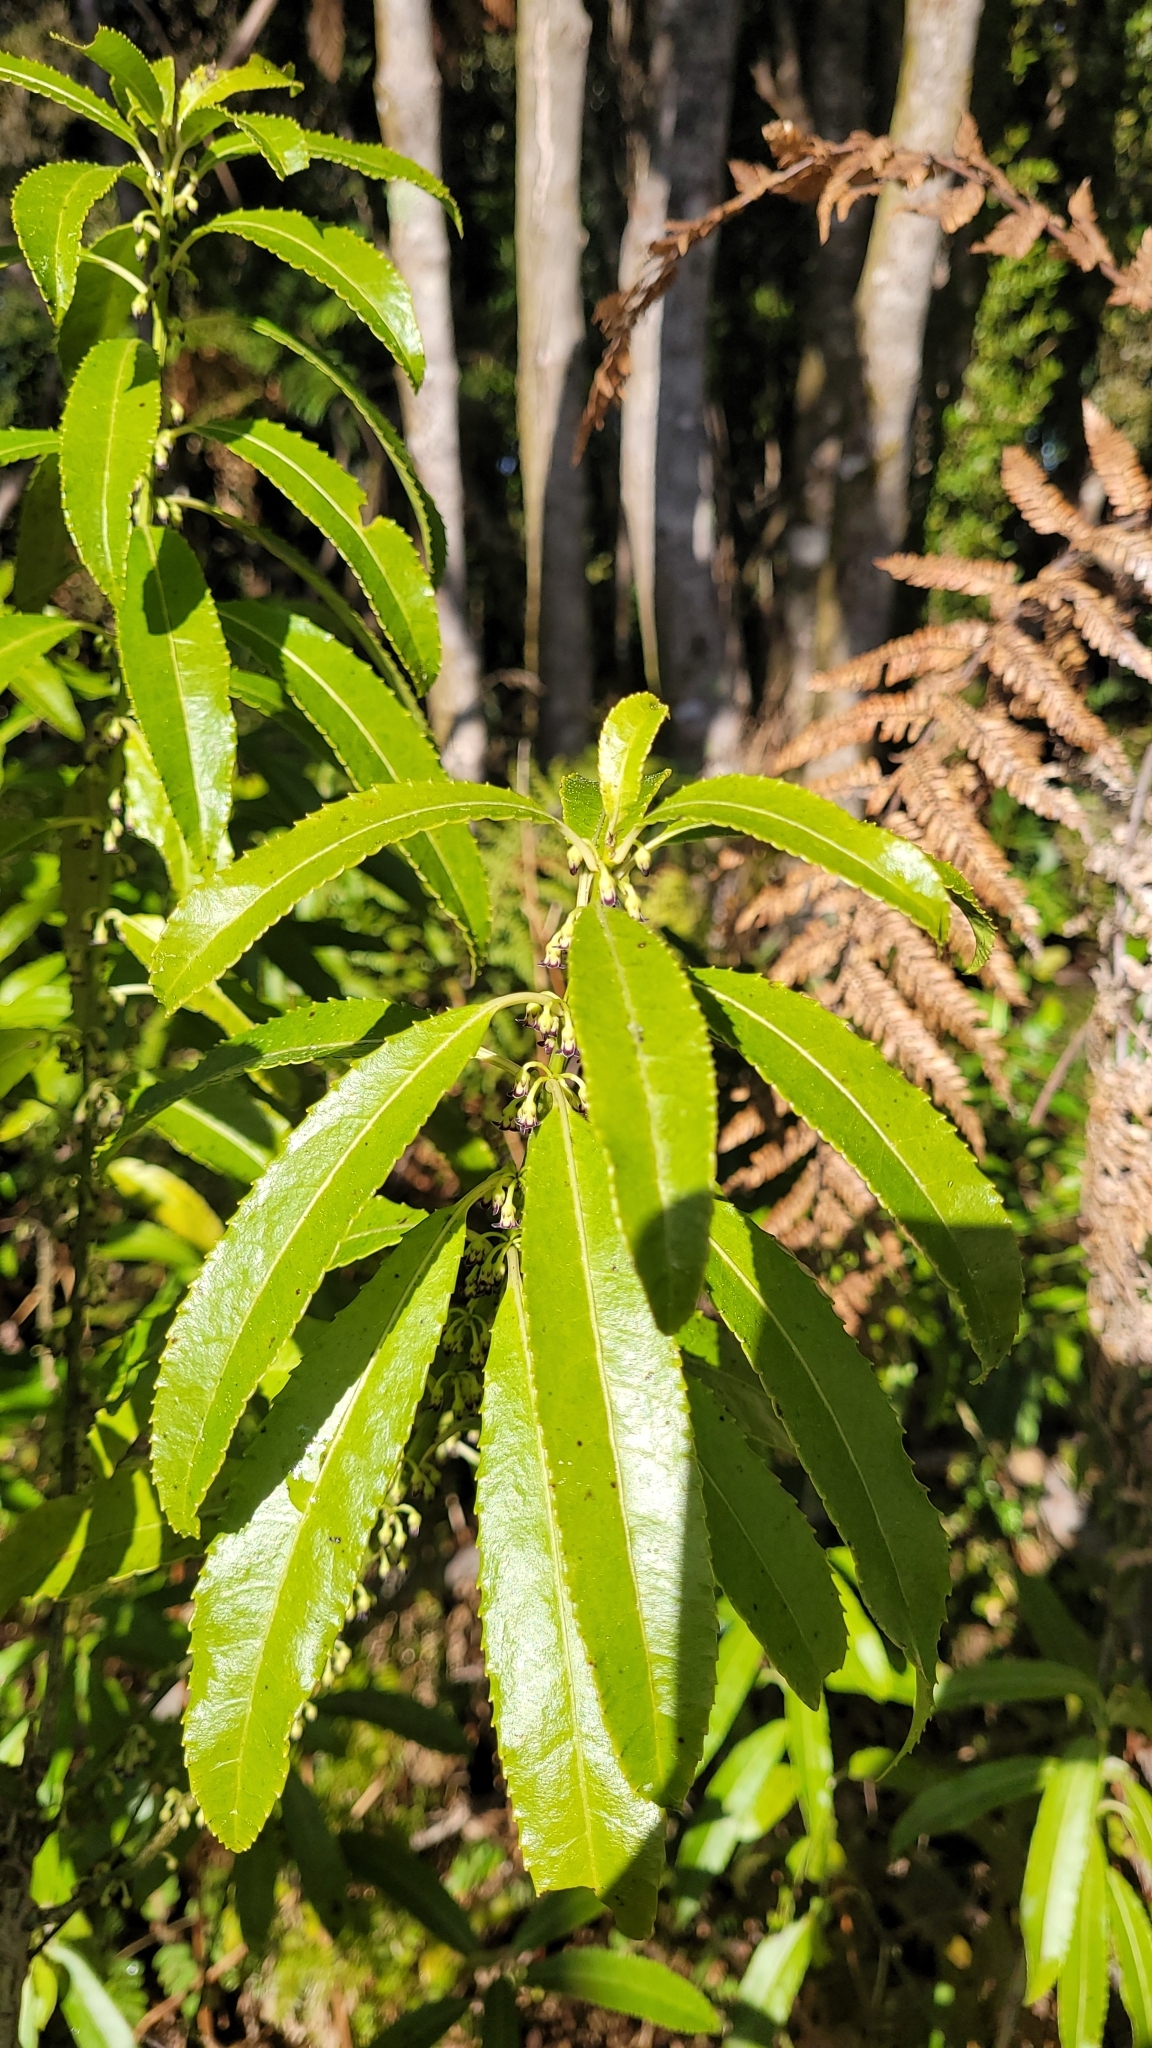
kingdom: Plantae
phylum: Tracheophyta
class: Magnoliopsida
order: Malpighiales
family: Violaceae
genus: Melicytus
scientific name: Melicytus lanceolatus
